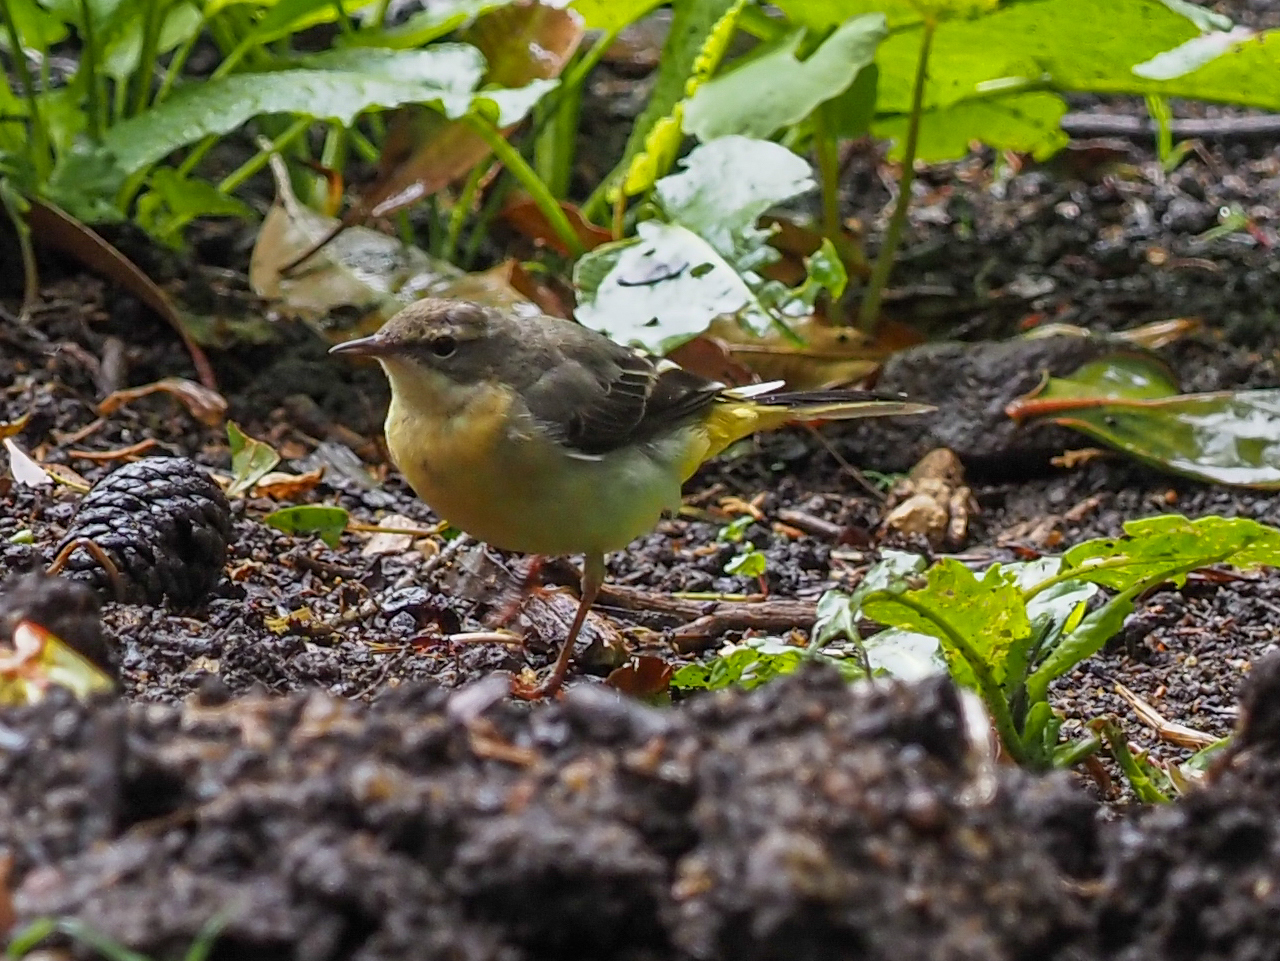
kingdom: Animalia
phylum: Chordata
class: Aves
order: Passeriformes
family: Motacillidae
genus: Motacilla
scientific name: Motacilla cinerea
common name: Grey wagtail
